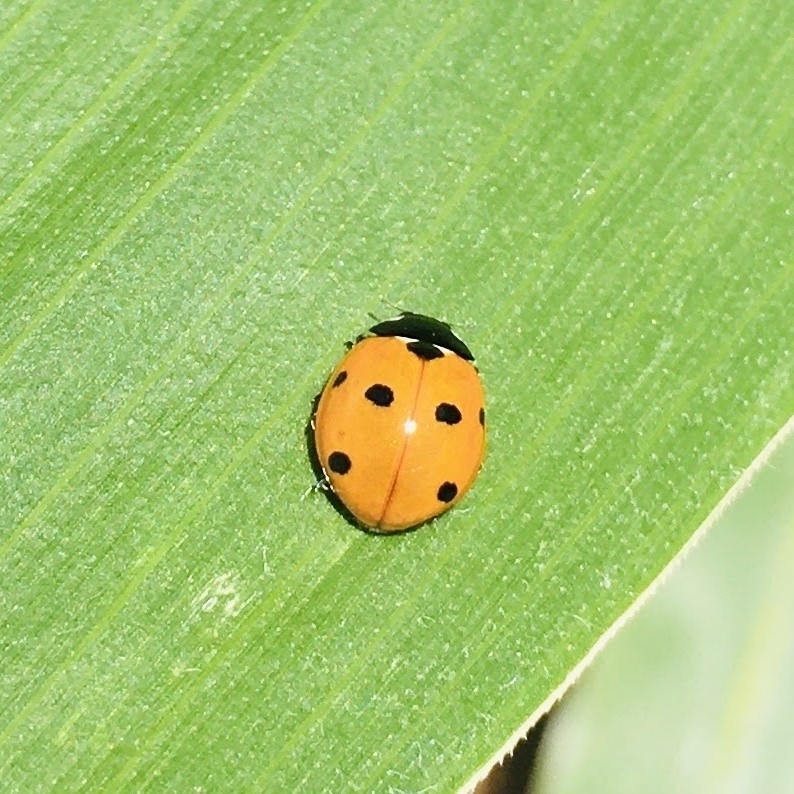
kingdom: Animalia
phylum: Arthropoda
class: Insecta
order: Coleoptera
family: Coccinellidae
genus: Coccinella
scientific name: Coccinella septempunctata
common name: Sevenspotted lady beetle
